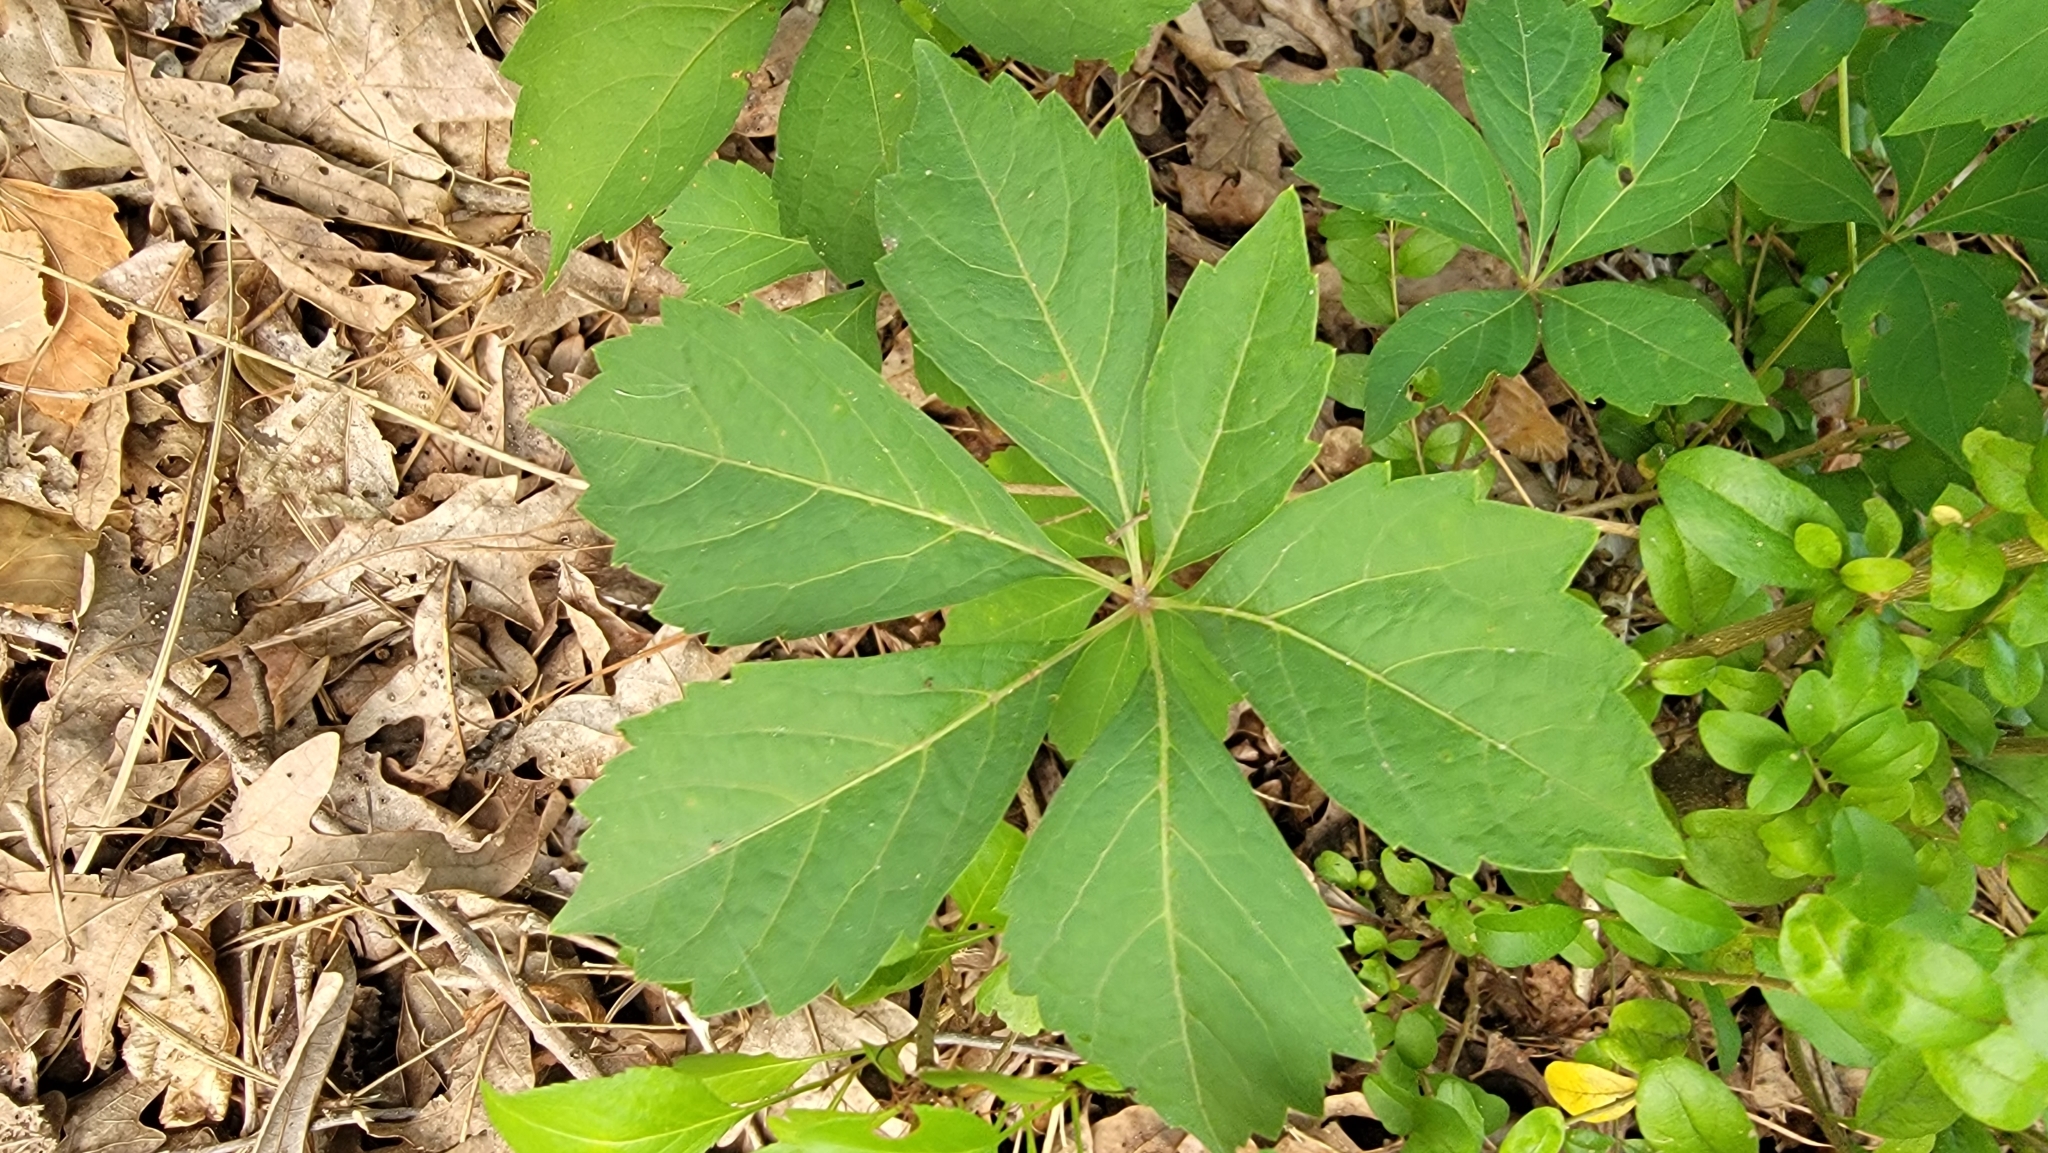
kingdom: Plantae
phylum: Tracheophyta
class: Magnoliopsida
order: Vitales
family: Vitaceae
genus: Parthenocissus
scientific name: Parthenocissus quinquefolia
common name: Virginia-creeper
